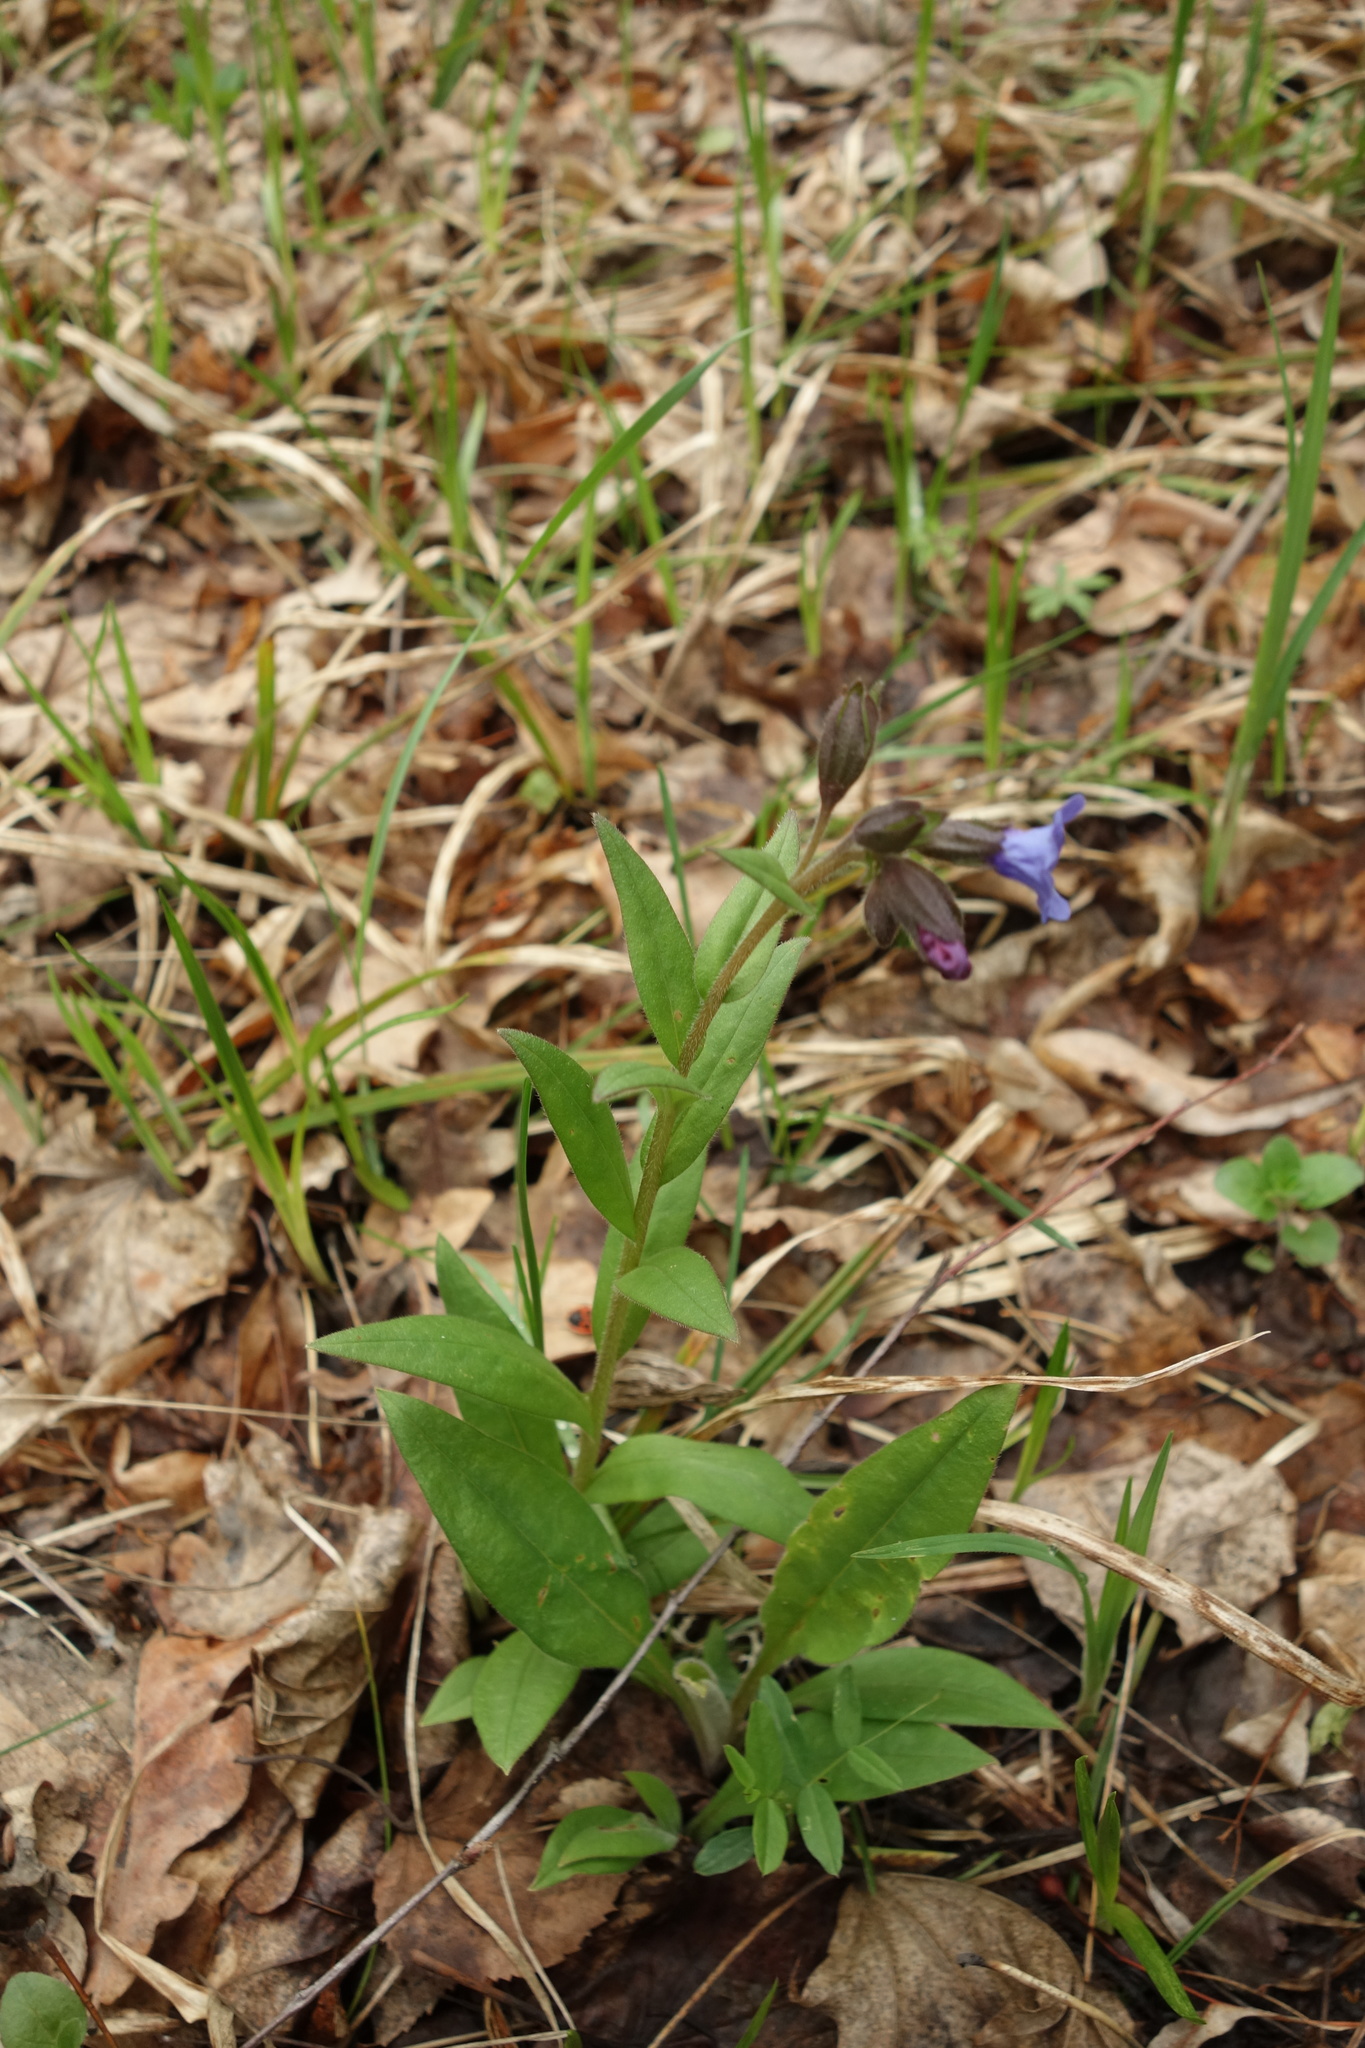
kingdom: Plantae
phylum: Tracheophyta
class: Magnoliopsida
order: Boraginales
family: Boraginaceae
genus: Pulmonaria
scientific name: Pulmonaria angustifolia
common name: Blue cowslip
